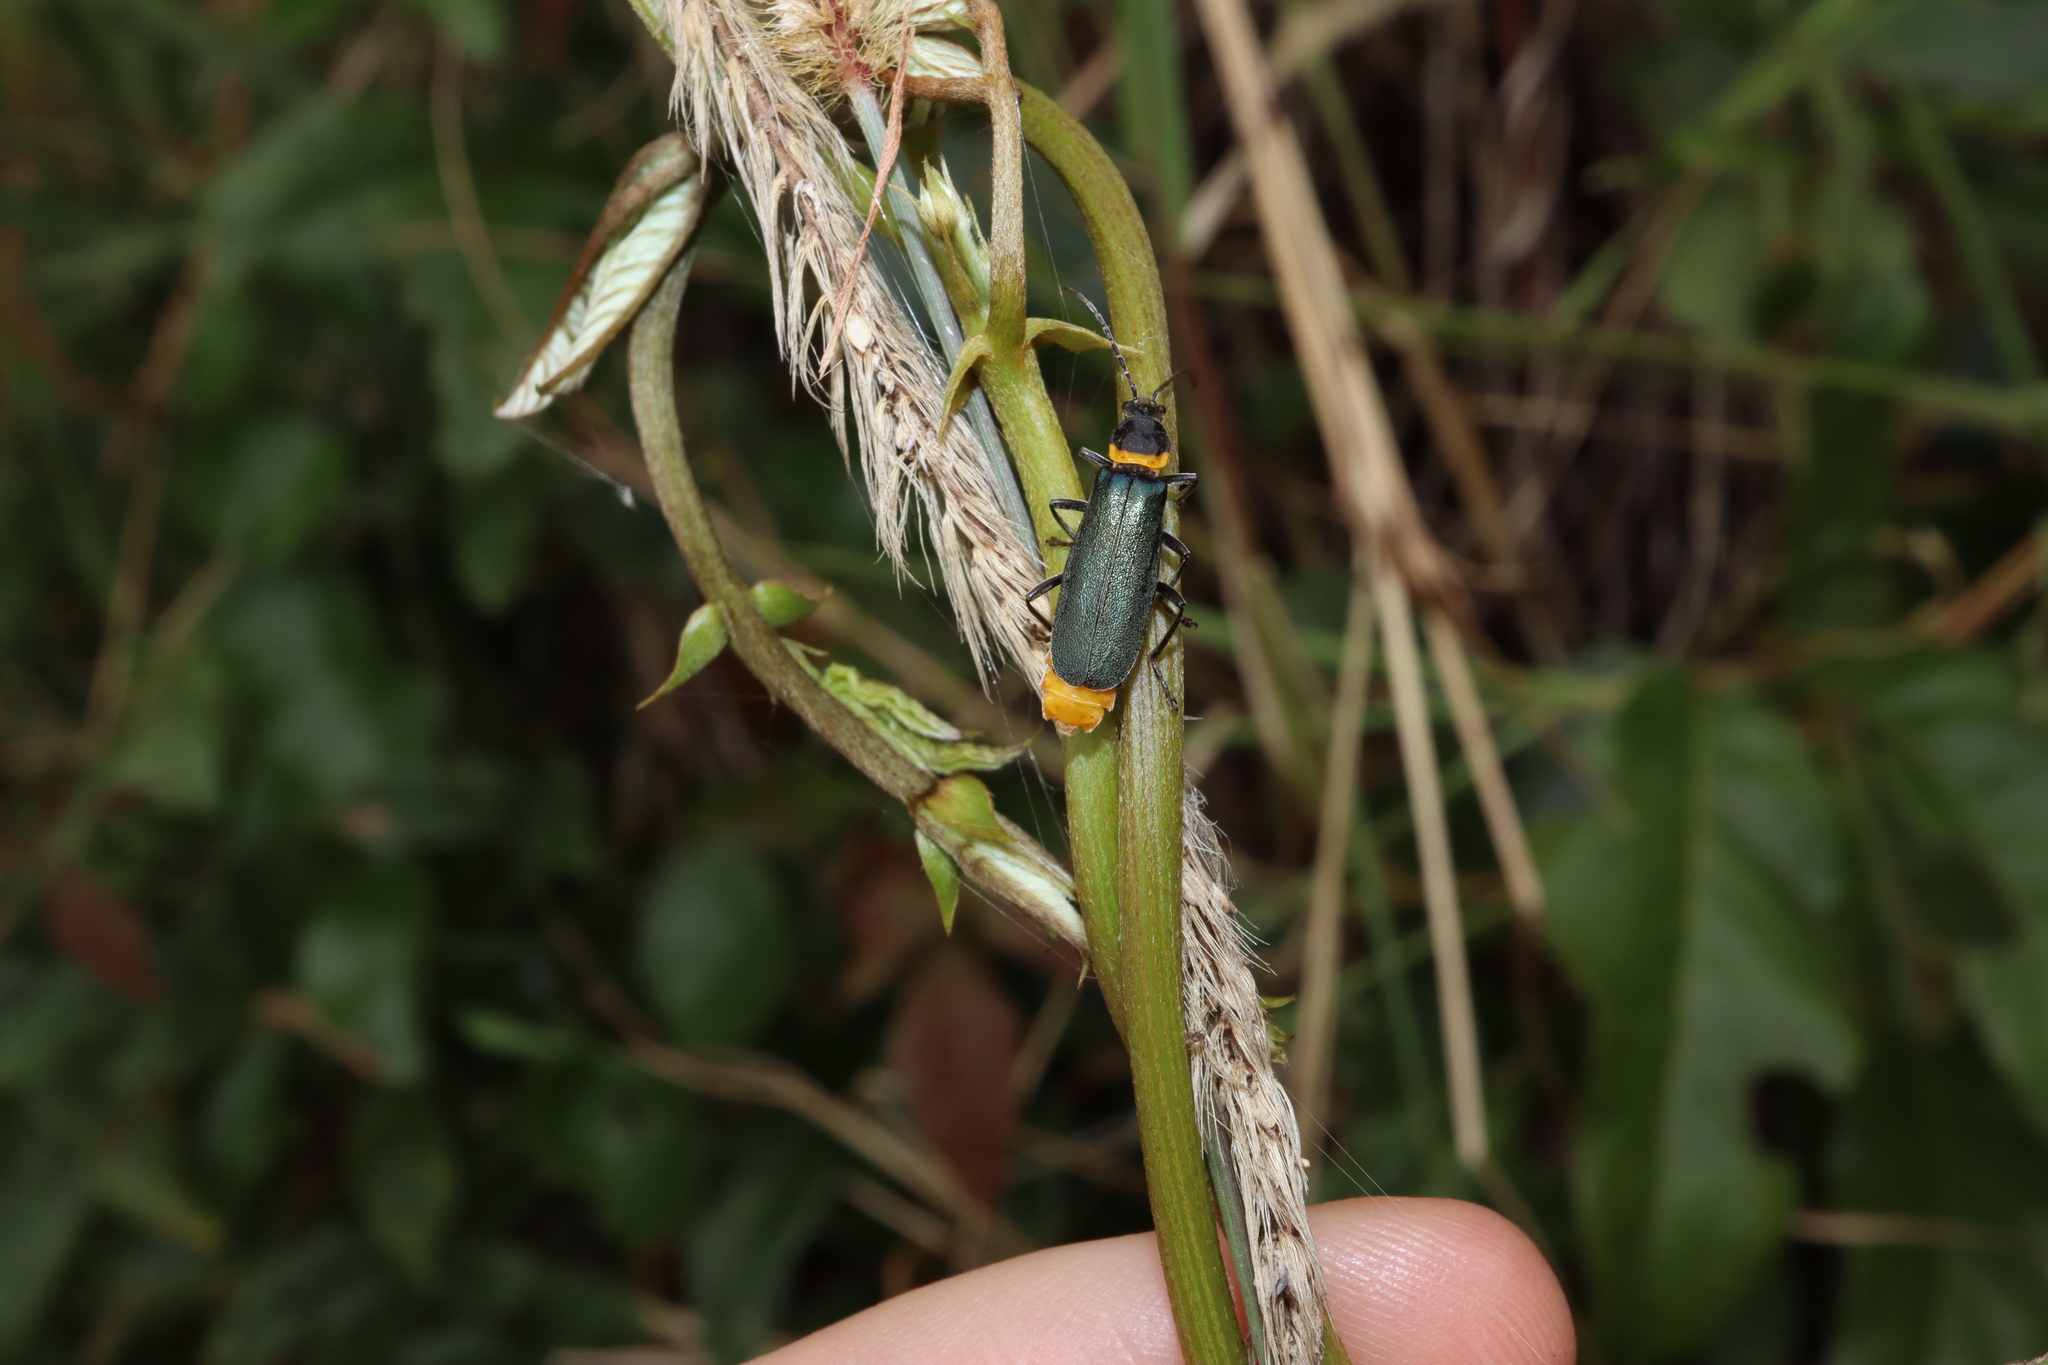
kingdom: Animalia
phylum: Arthropoda
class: Insecta
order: Coleoptera
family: Cantharidae
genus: Chauliognathus
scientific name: Chauliognathus
